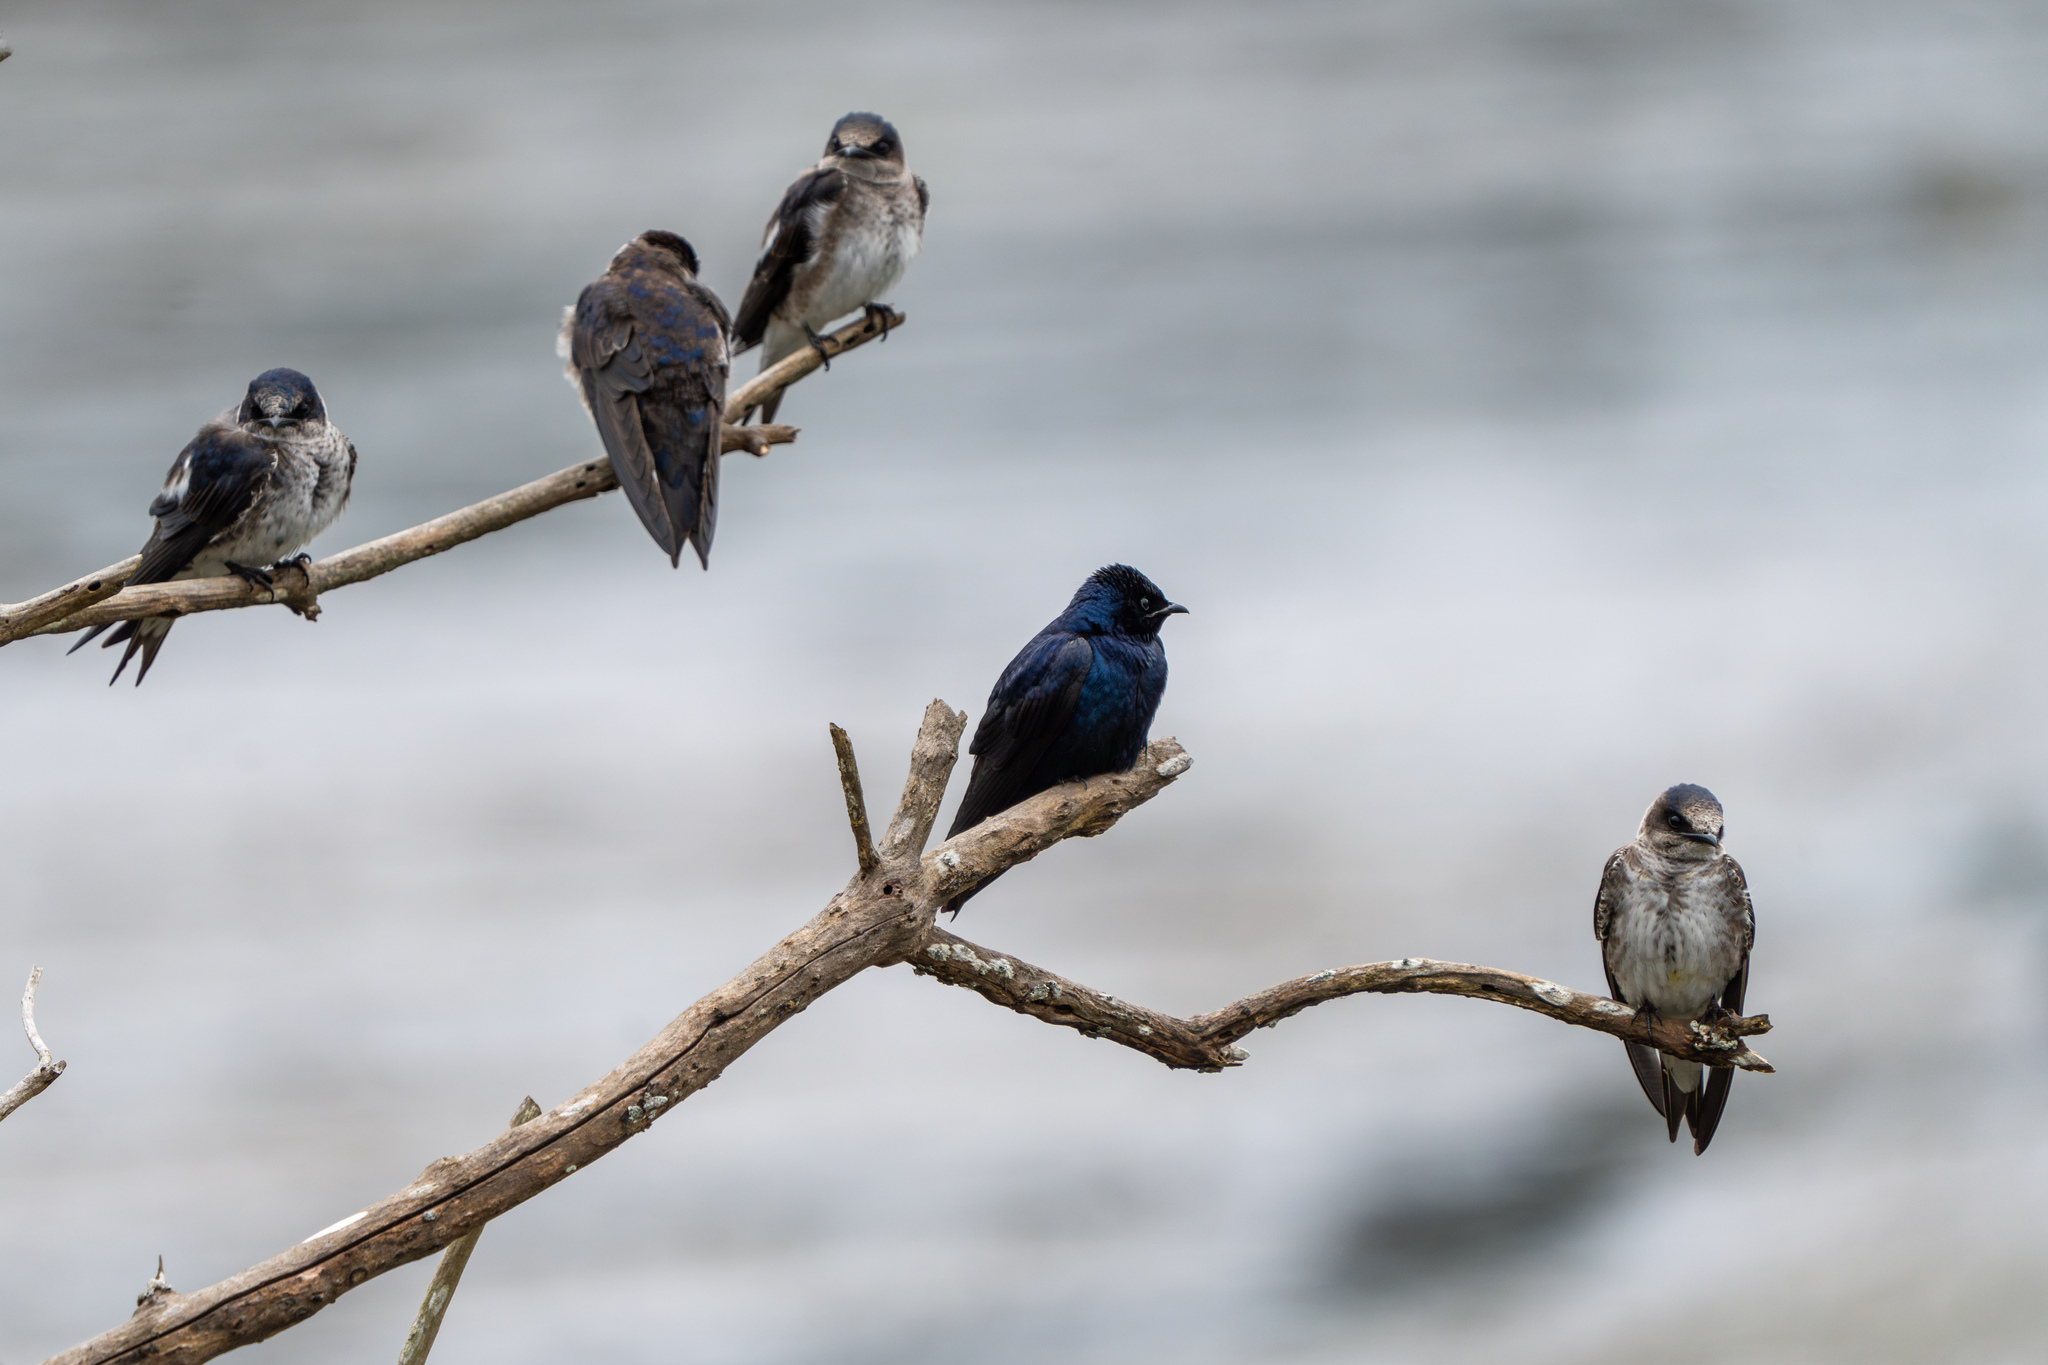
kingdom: Animalia
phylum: Chordata
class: Aves
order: Passeriformes
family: Hirundinidae
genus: Progne
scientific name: Progne subis
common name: Purple martin
